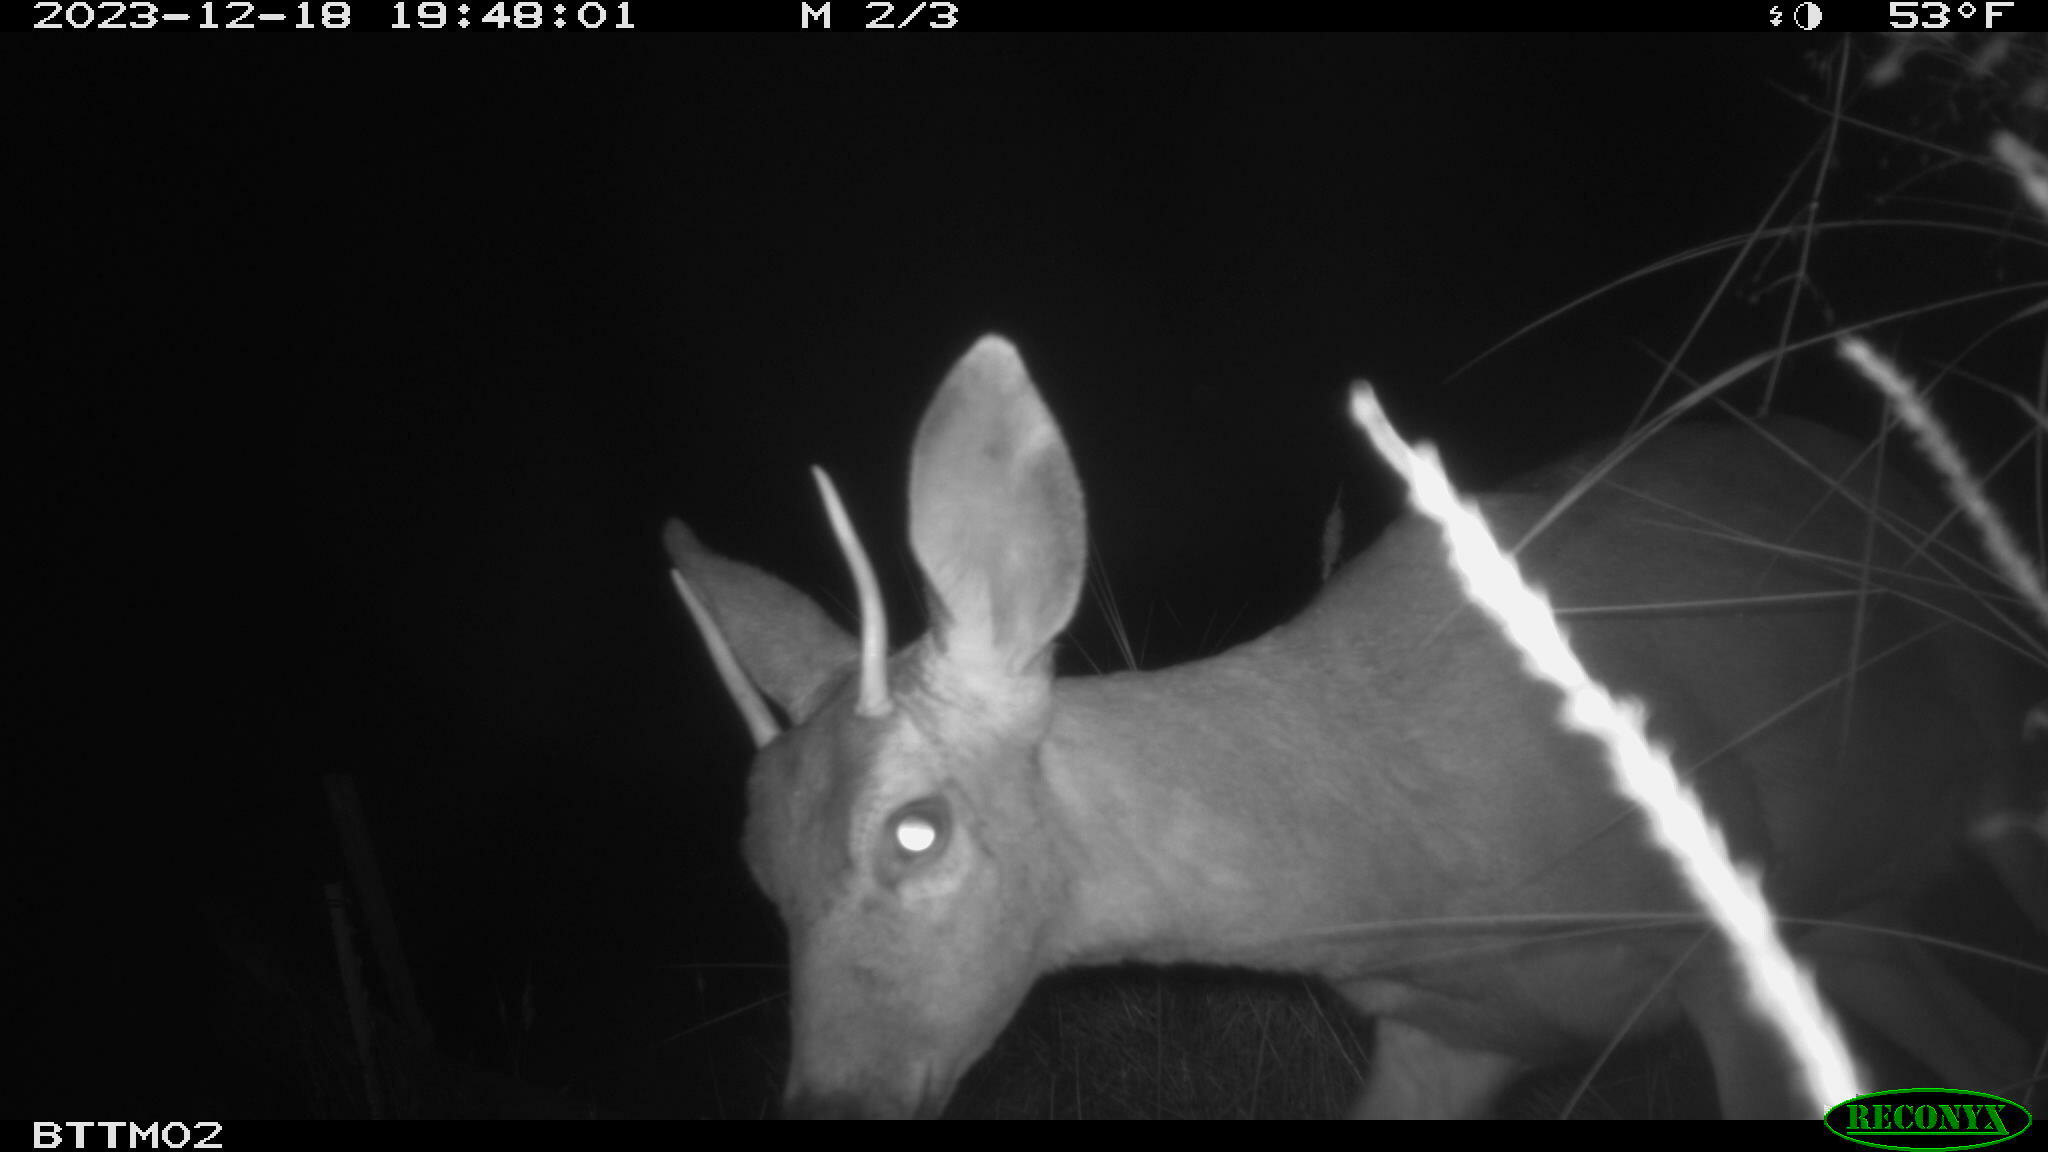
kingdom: Animalia
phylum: Chordata
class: Mammalia
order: Artiodactyla
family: Cervidae
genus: Odocoileus
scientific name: Odocoileus hemionus
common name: Mule deer
